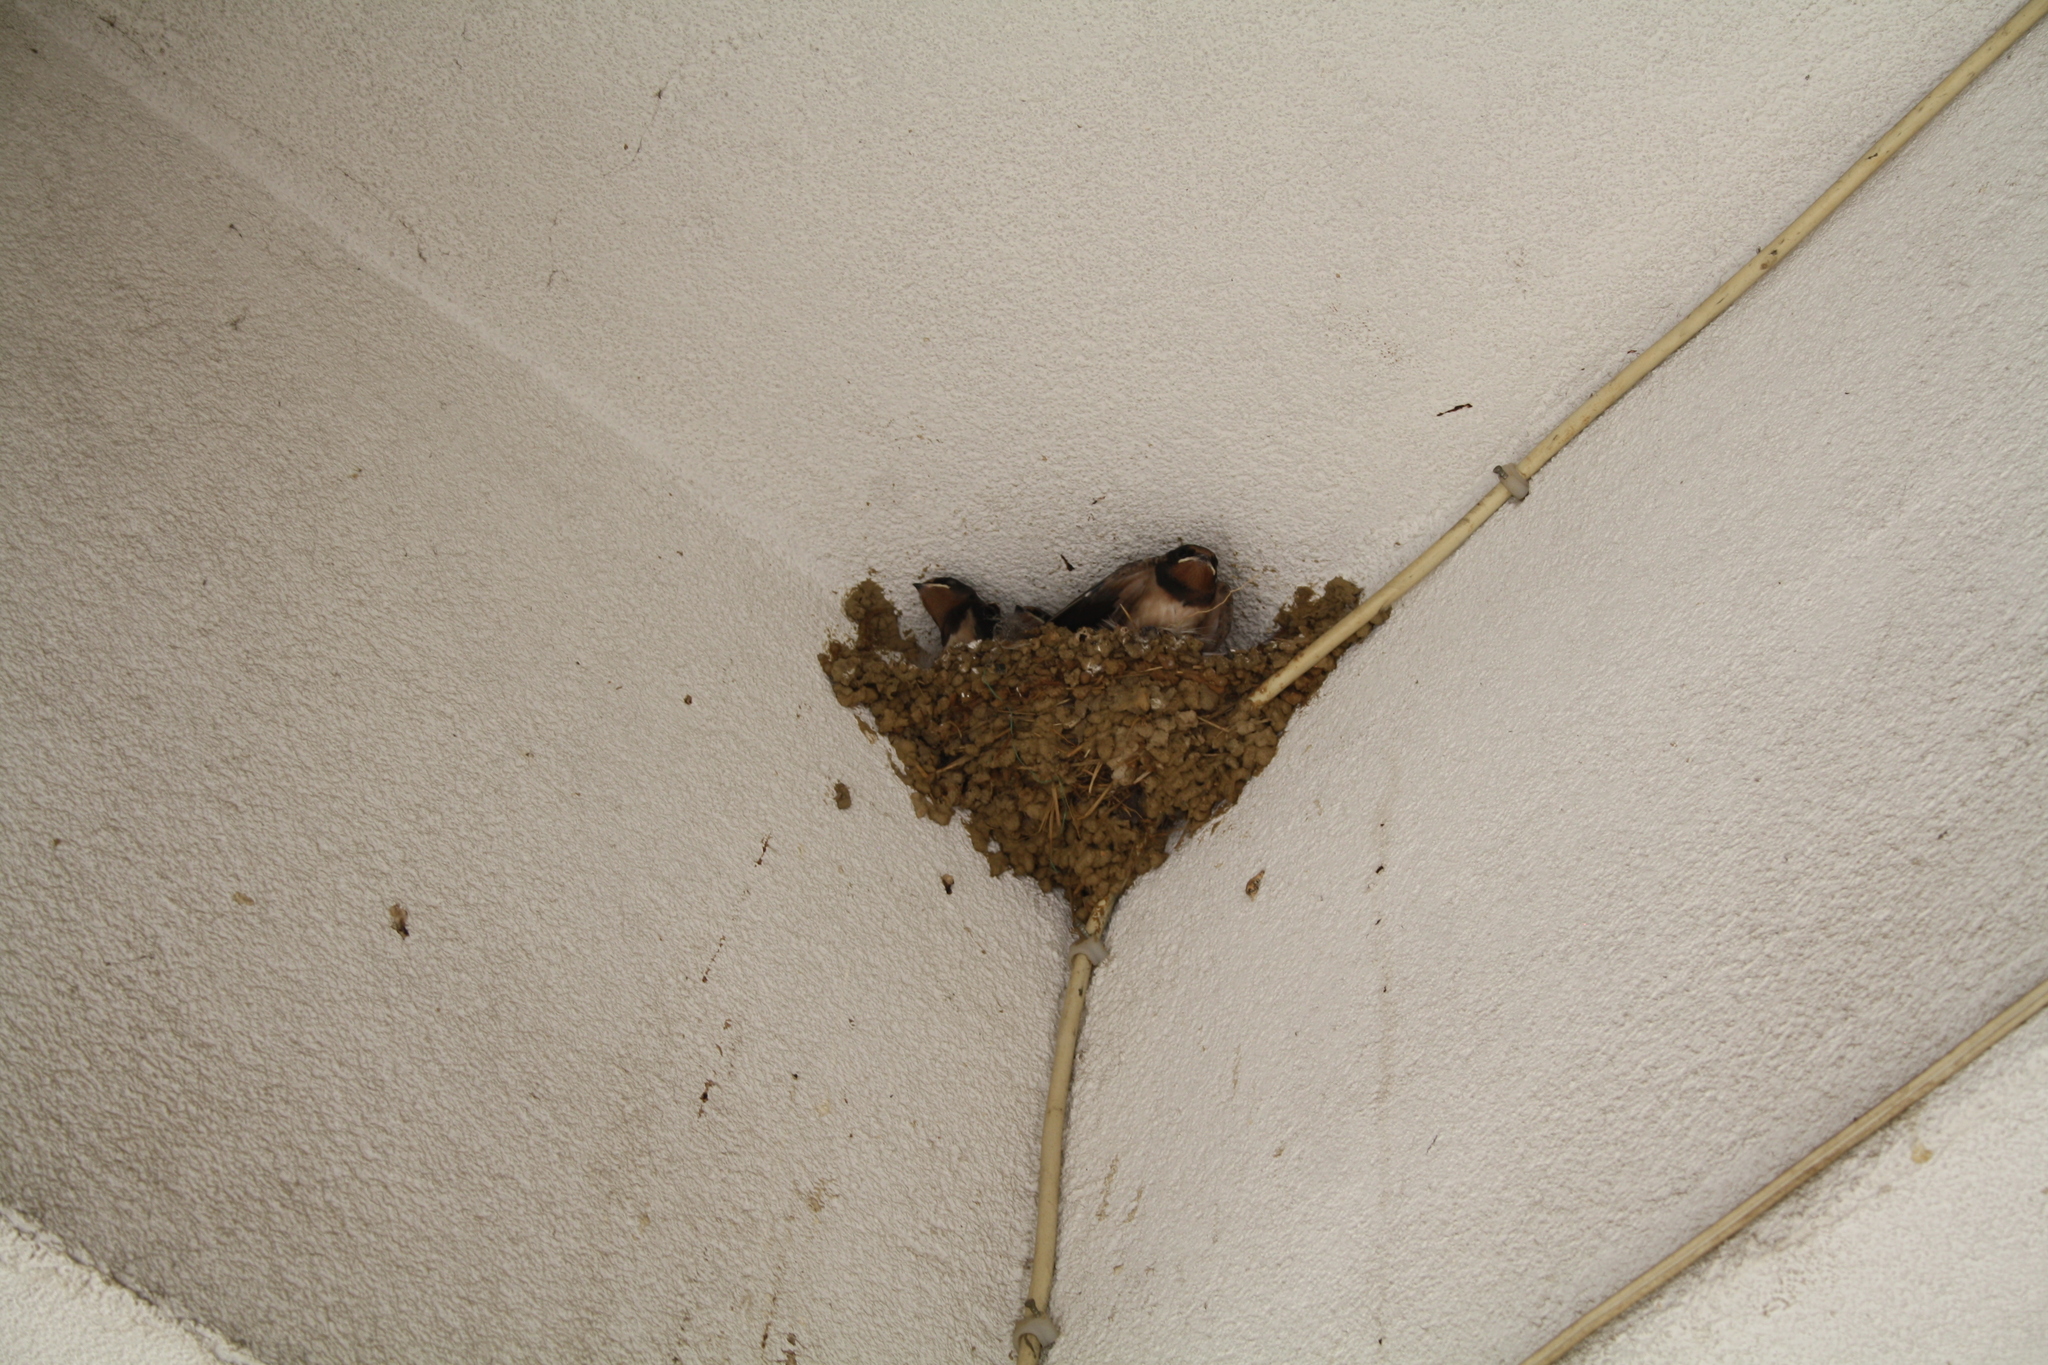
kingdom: Animalia
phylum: Chordata
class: Aves
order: Passeriformes
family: Hirundinidae
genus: Hirundo
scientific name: Hirundo rustica
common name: Barn swallow
